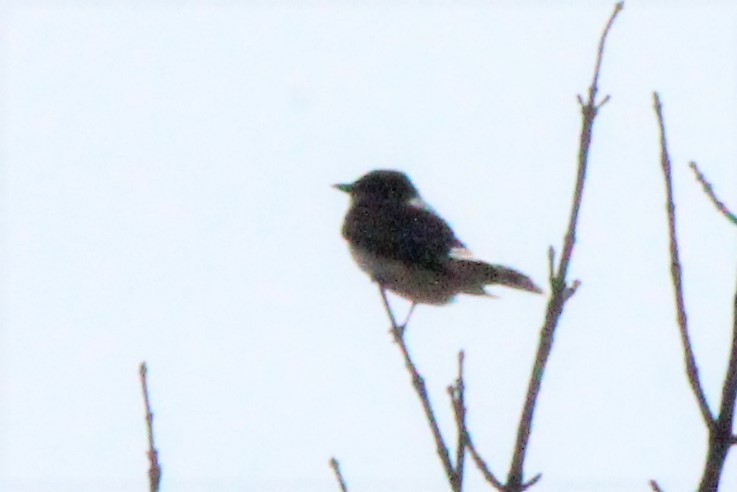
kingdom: Animalia
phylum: Chordata
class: Aves
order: Passeriformes
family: Tyrannidae
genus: Tyrannus
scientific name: Tyrannus tyrannus
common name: Eastern kingbird
